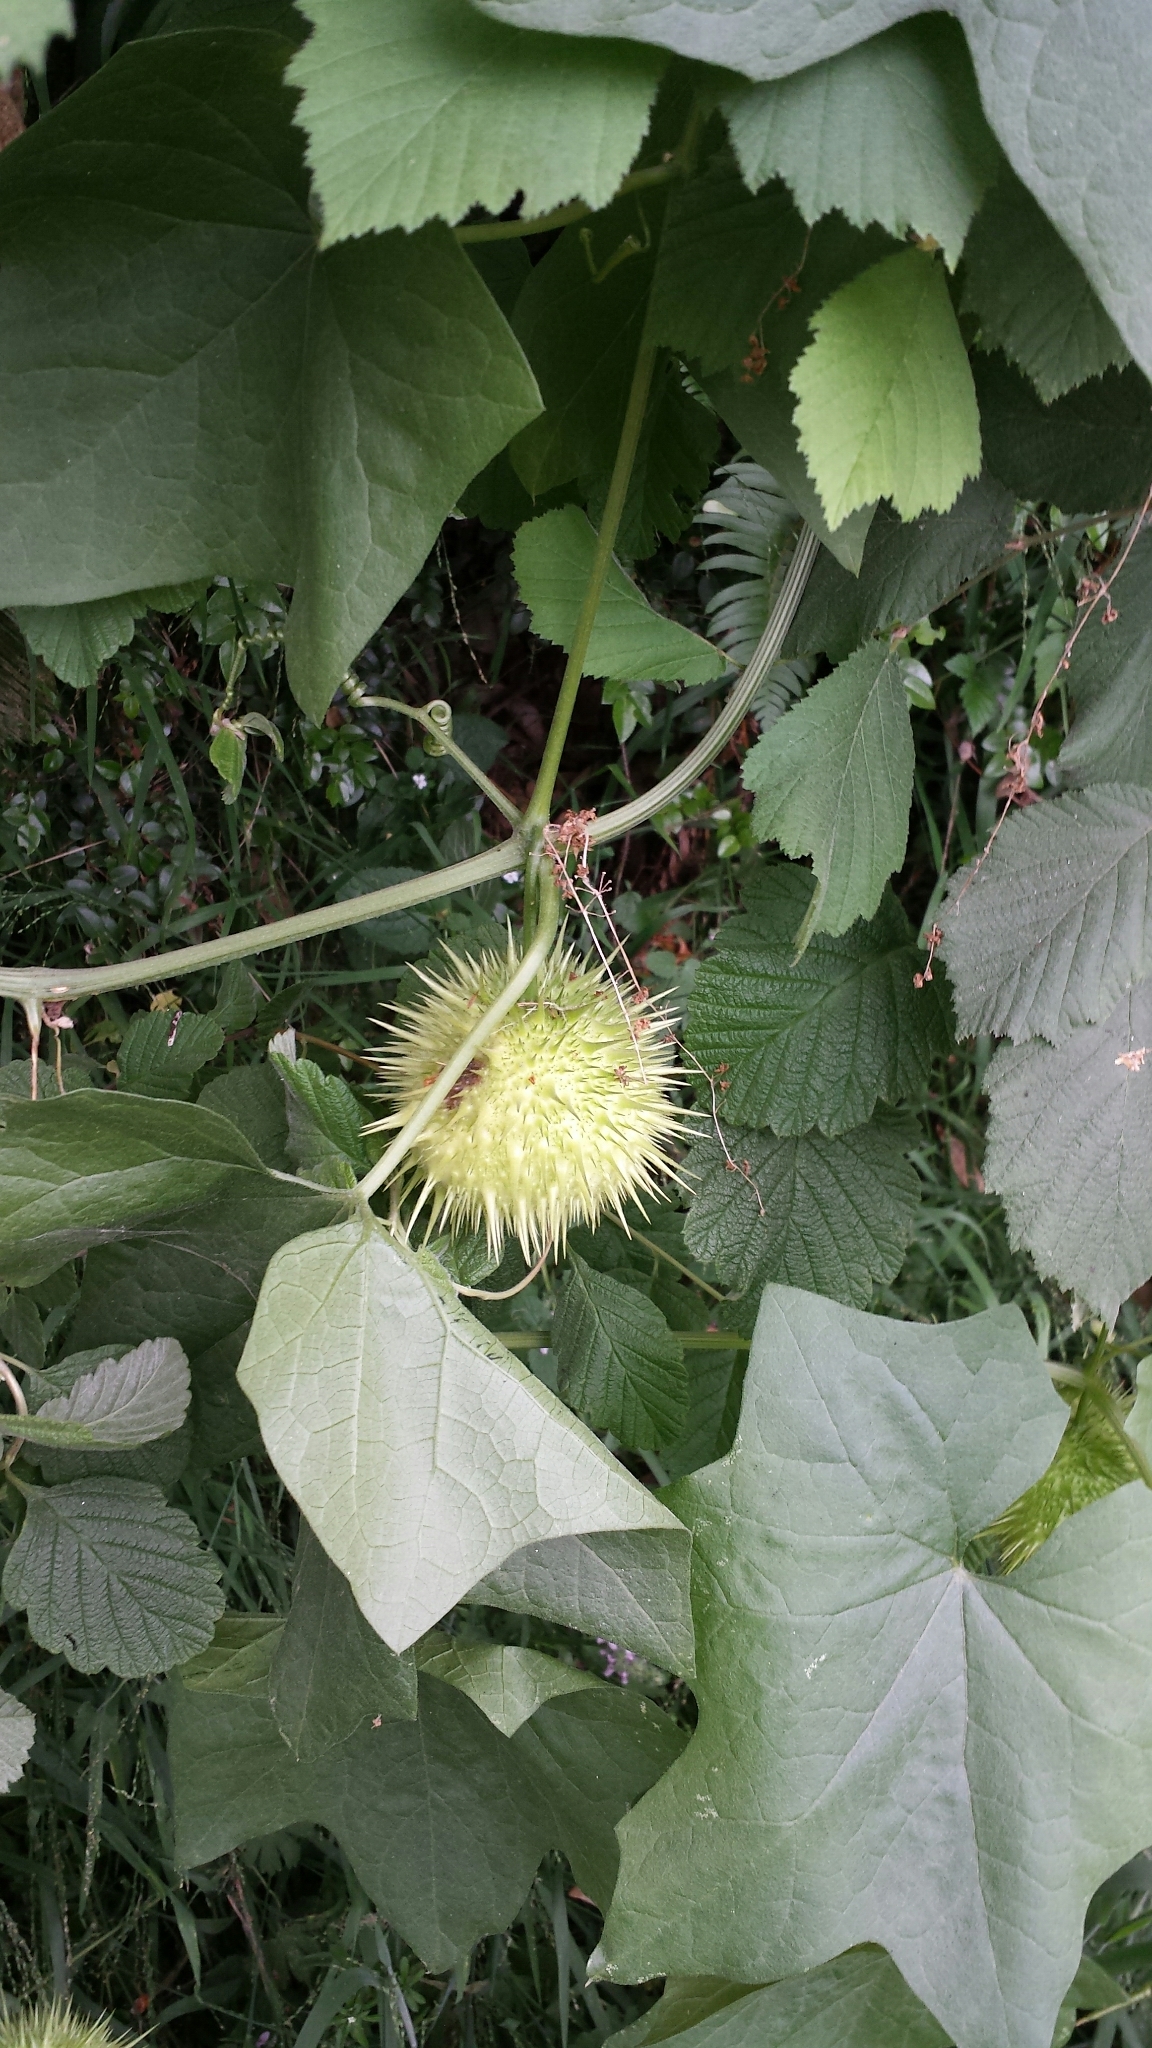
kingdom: Plantae
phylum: Tracheophyta
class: Magnoliopsida
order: Cucurbitales
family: Cucurbitaceae
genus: Marah
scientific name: Marah fabacea
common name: California manroot
